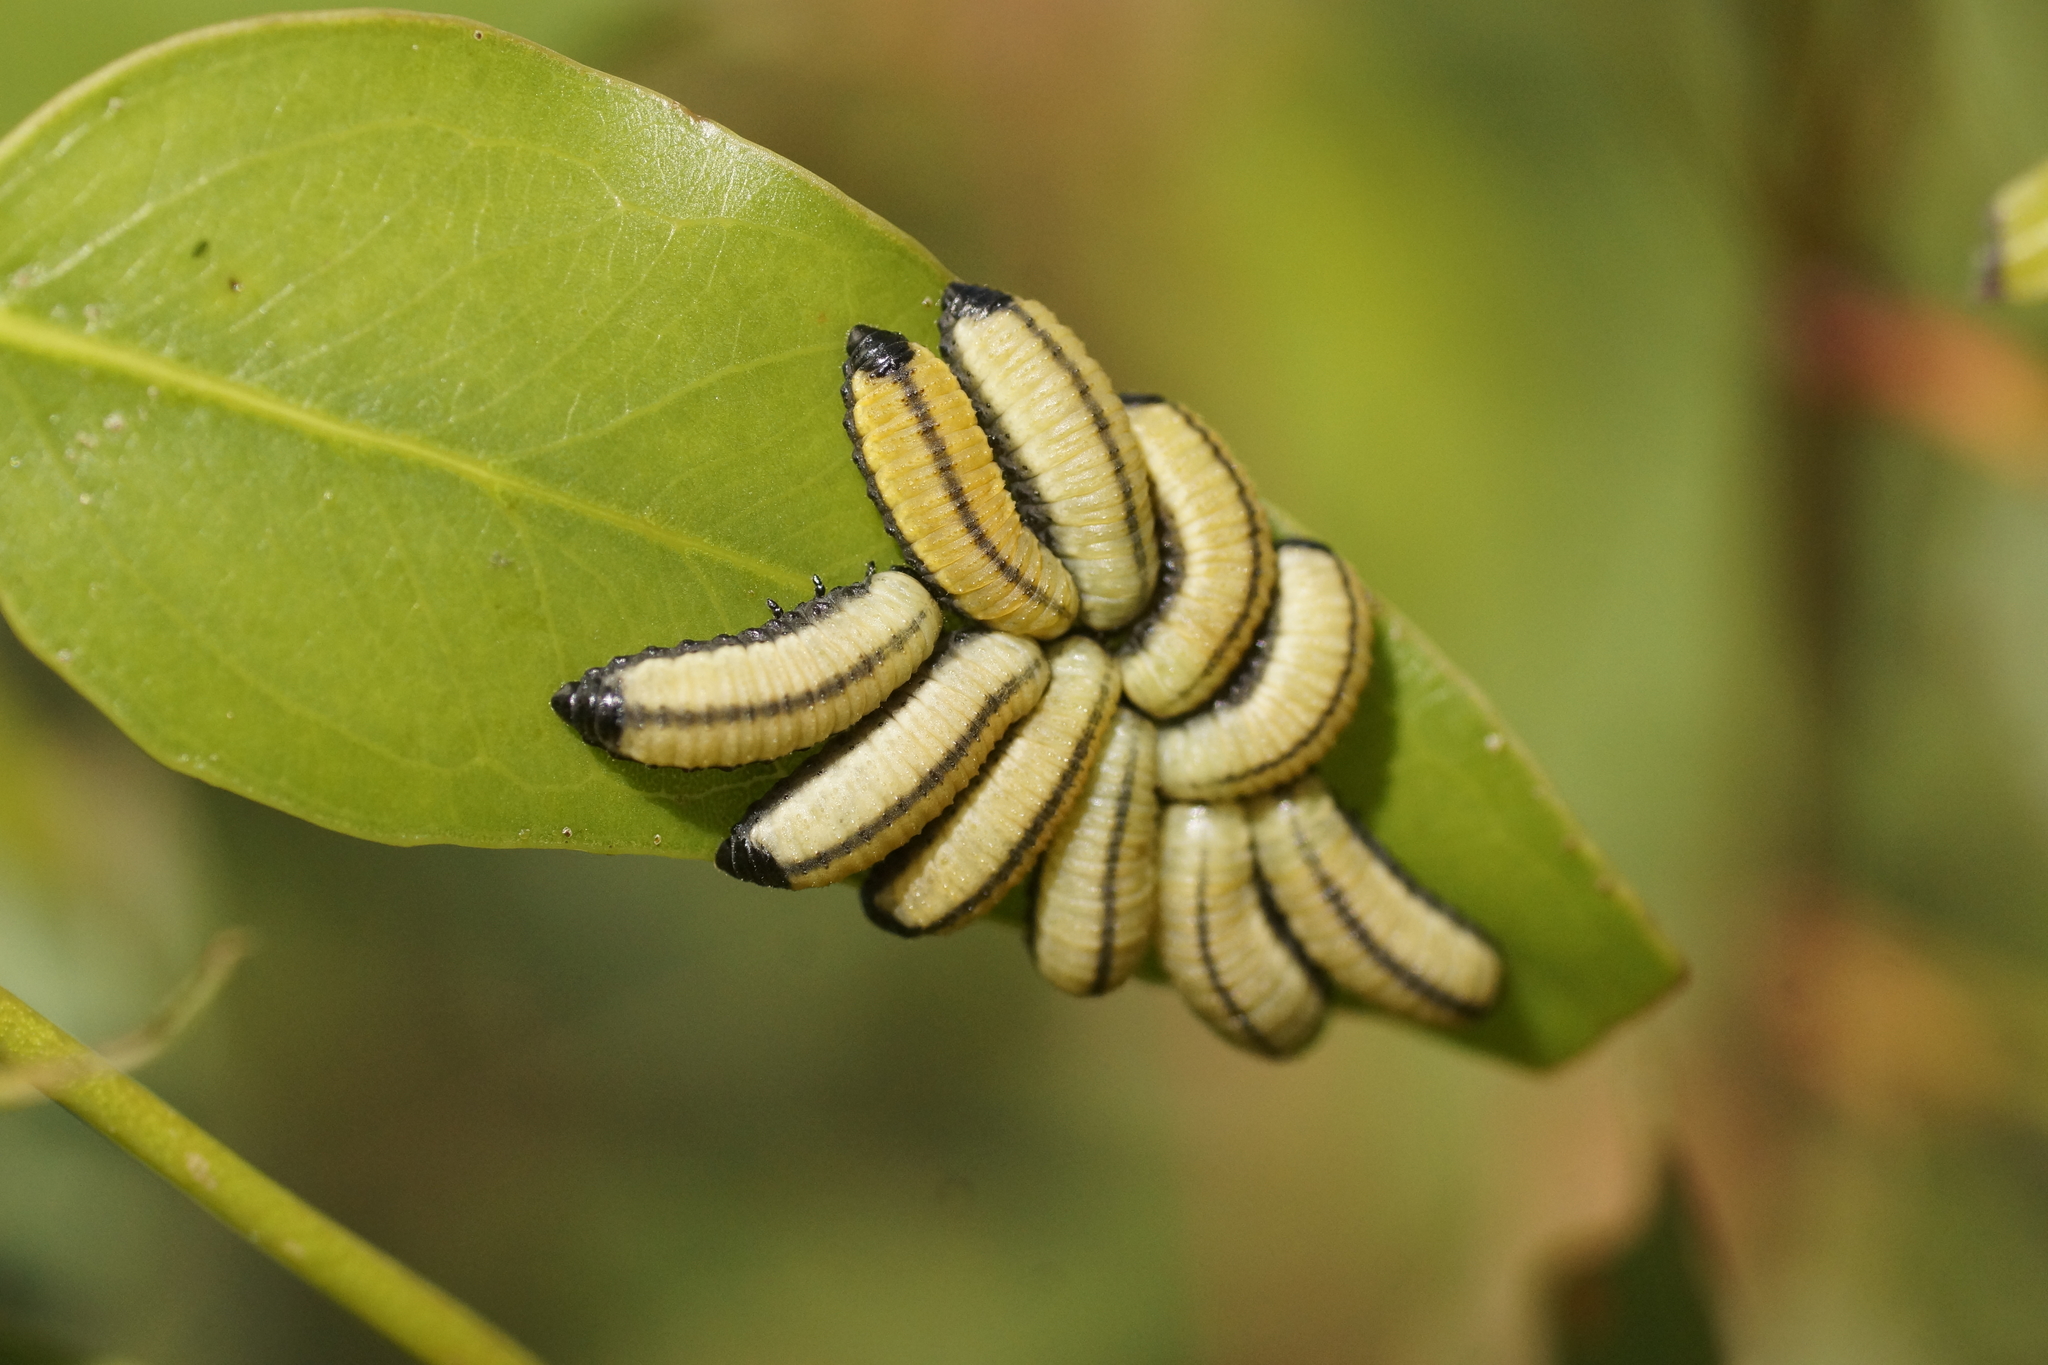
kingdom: Animalia
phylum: Arthropoda
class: Insecta
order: Coleoptera
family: Chrysomelidae
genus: Paropsisterna
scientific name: Paropsisterna cloelia
